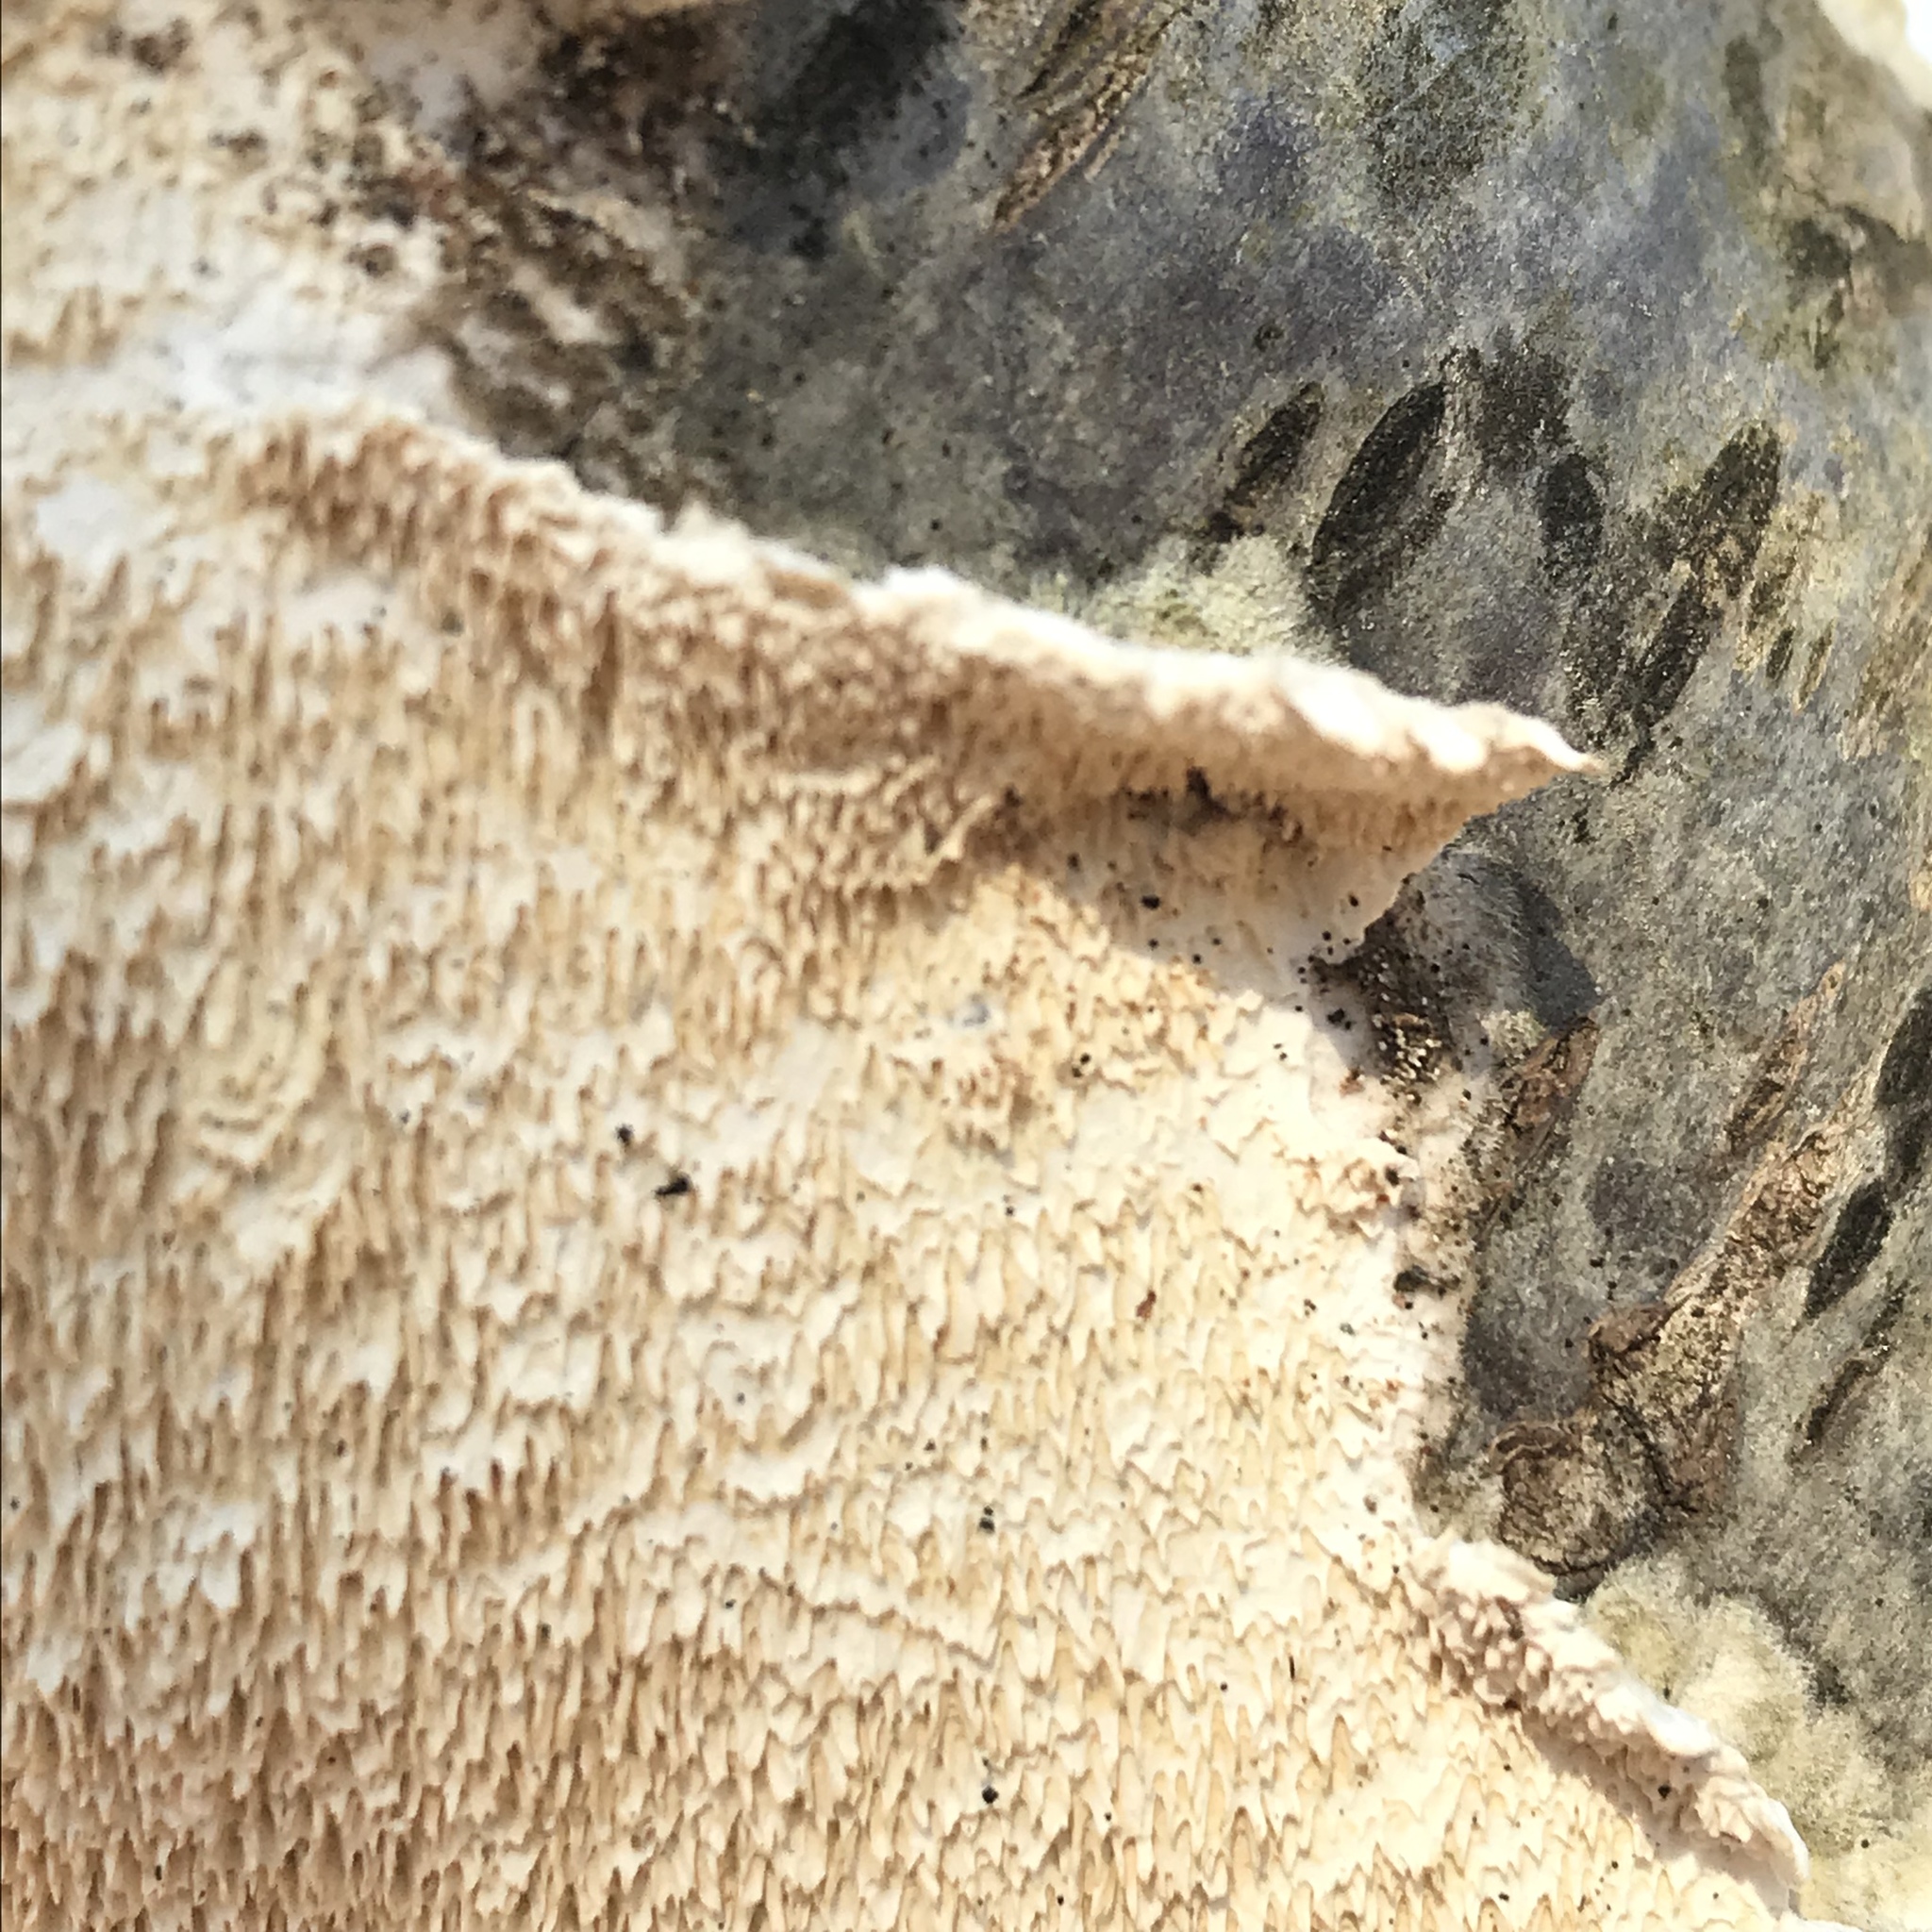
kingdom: Fungi
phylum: Basidiomycota
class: Agaricomycetes
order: Polyporales
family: Irpicaceae
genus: Irpex
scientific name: Irpex lacteus
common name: Milk-white toothed polypore
